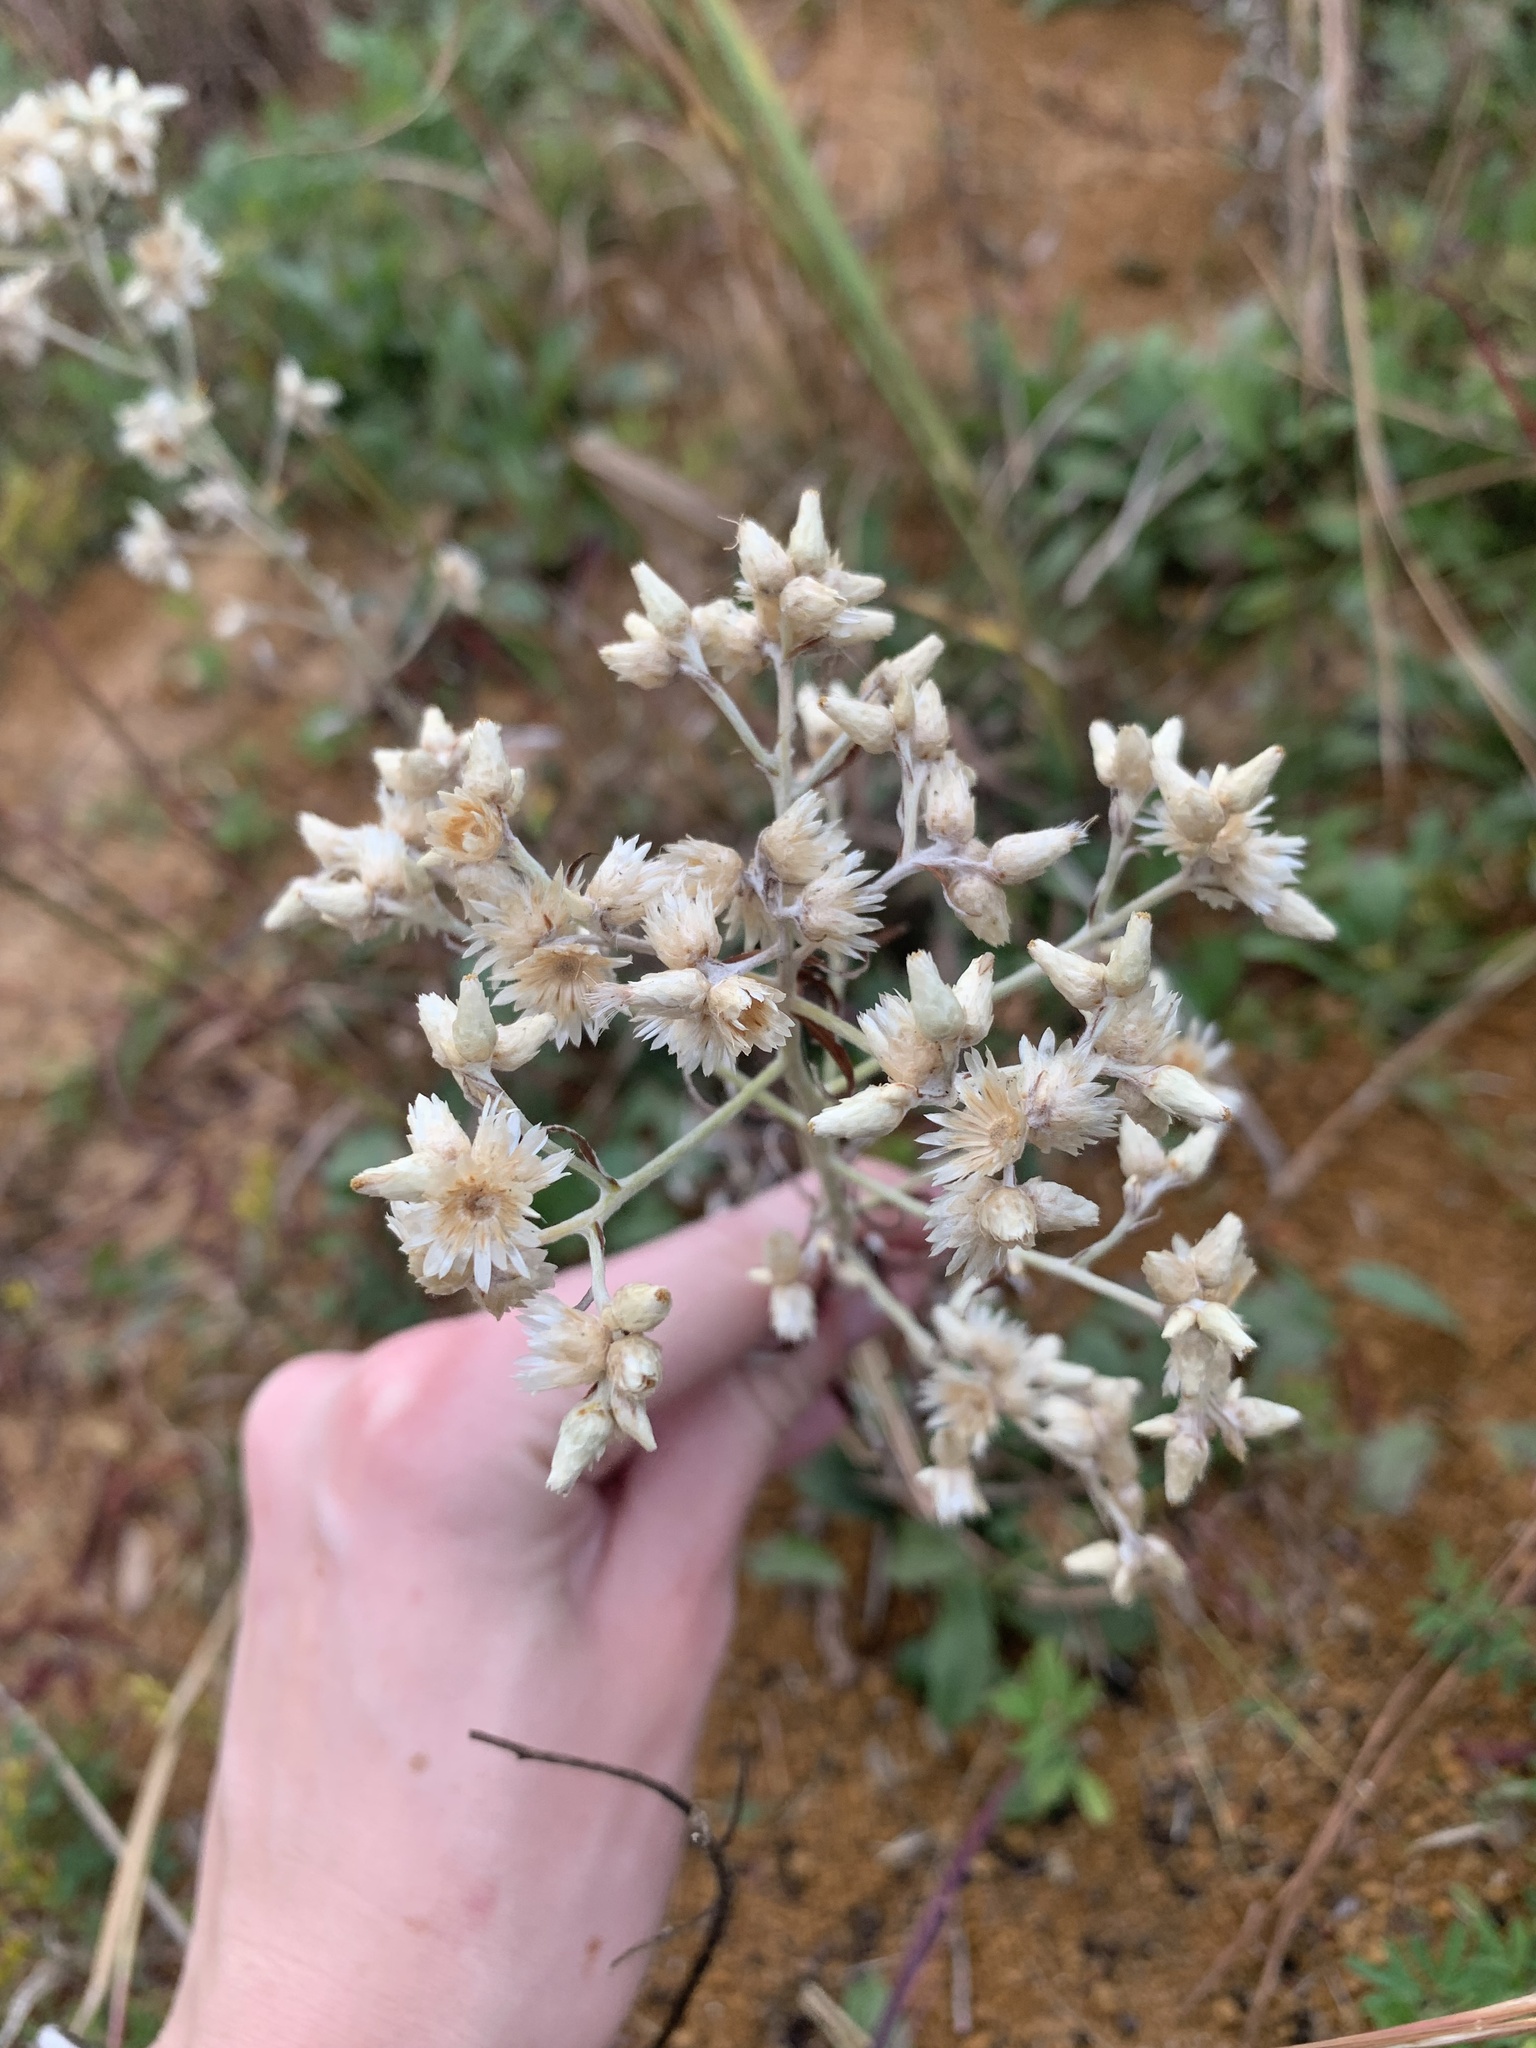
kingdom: Plantae
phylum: Tracheophyta
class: Magnoliopsida
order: Asterales
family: Asteraceae
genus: Pseudognaphalium
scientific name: Pseudognaphalium obtusifolium
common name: Eastern rabbit-tobacco
